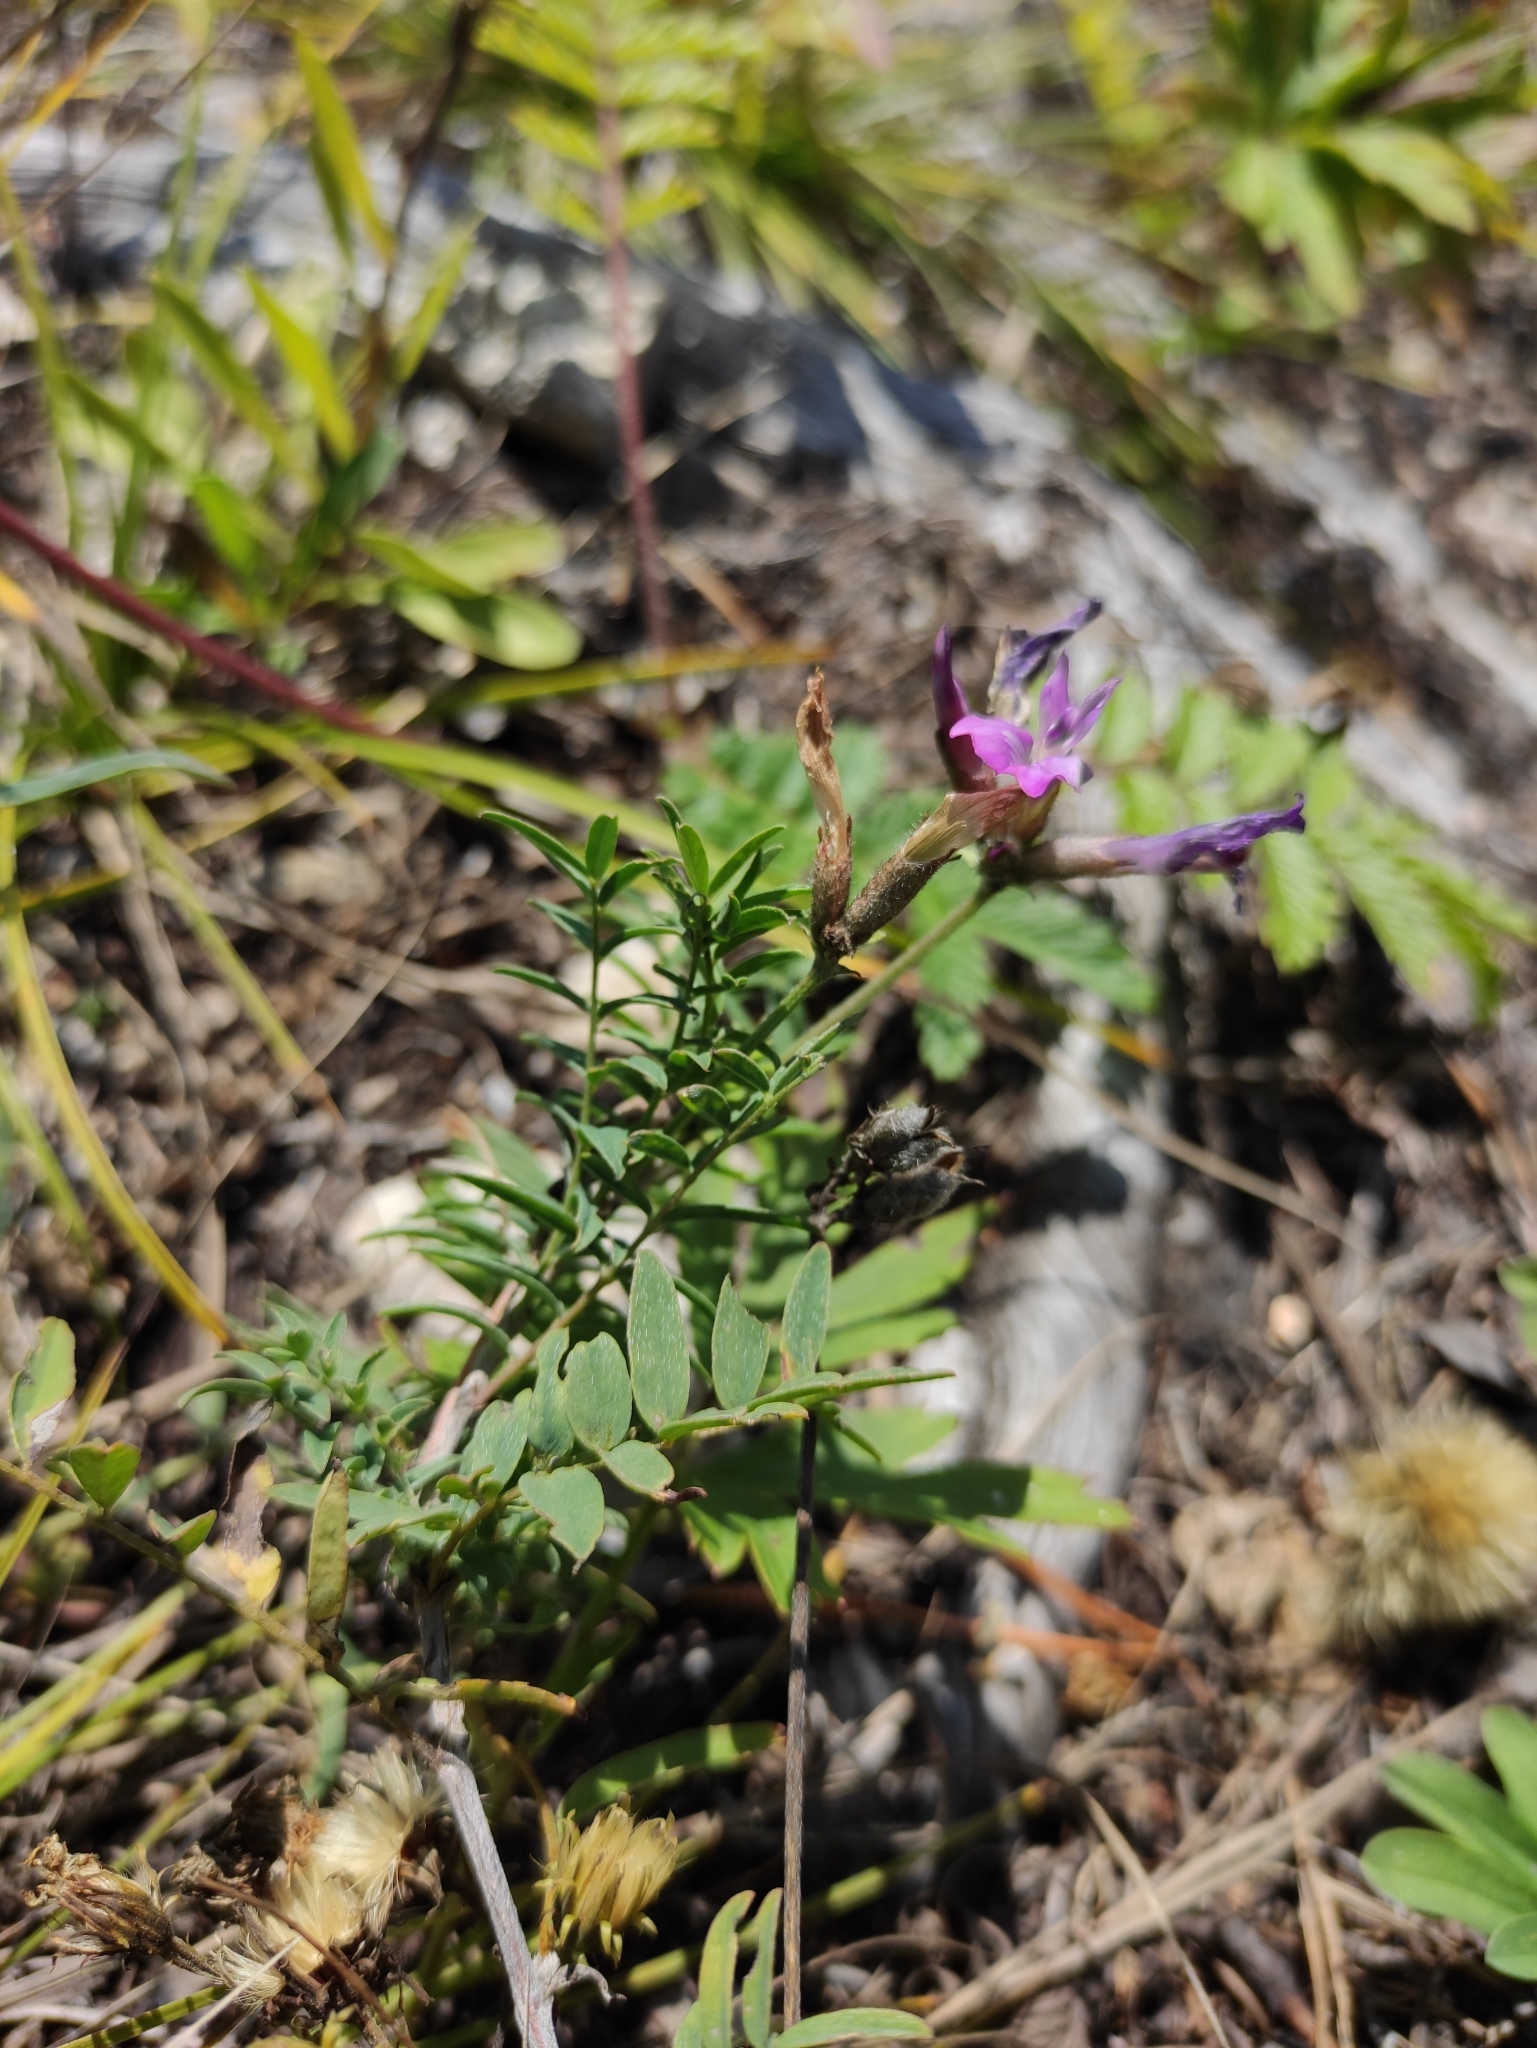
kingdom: Plantae
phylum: Tracheophyta
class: Magnoliopsida
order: Fabales
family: Fabaceae
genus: Astragalus
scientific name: Astragalus syriacus
